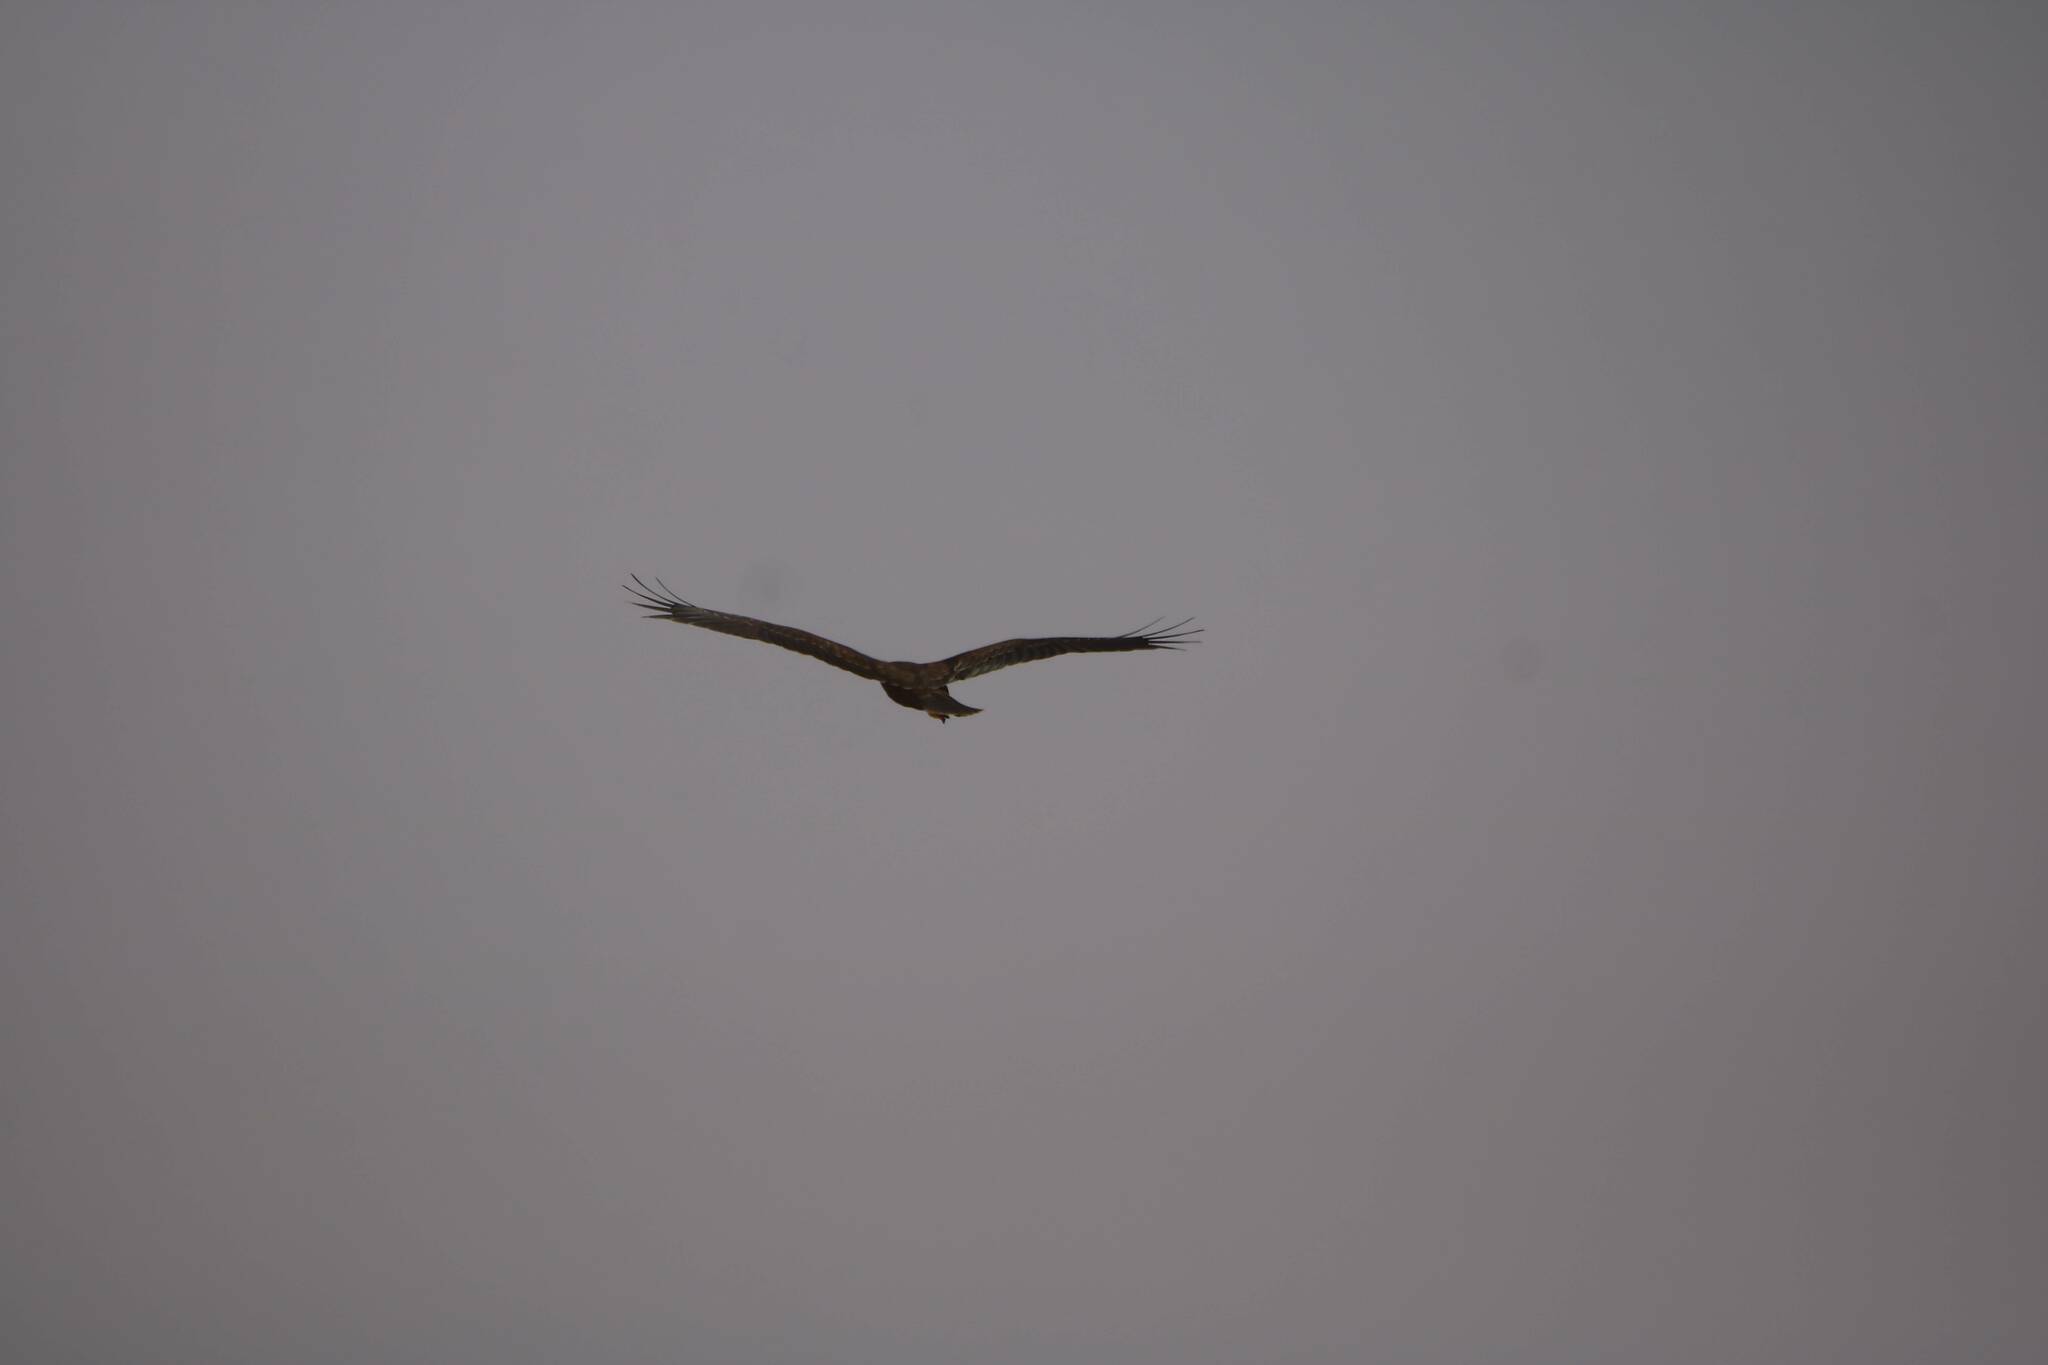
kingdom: Animalia
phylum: Chordata
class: Aves
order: Accipitriformes
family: Accipitridae
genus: Circus
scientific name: Circus aeruginosus
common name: Western marsh harrier
